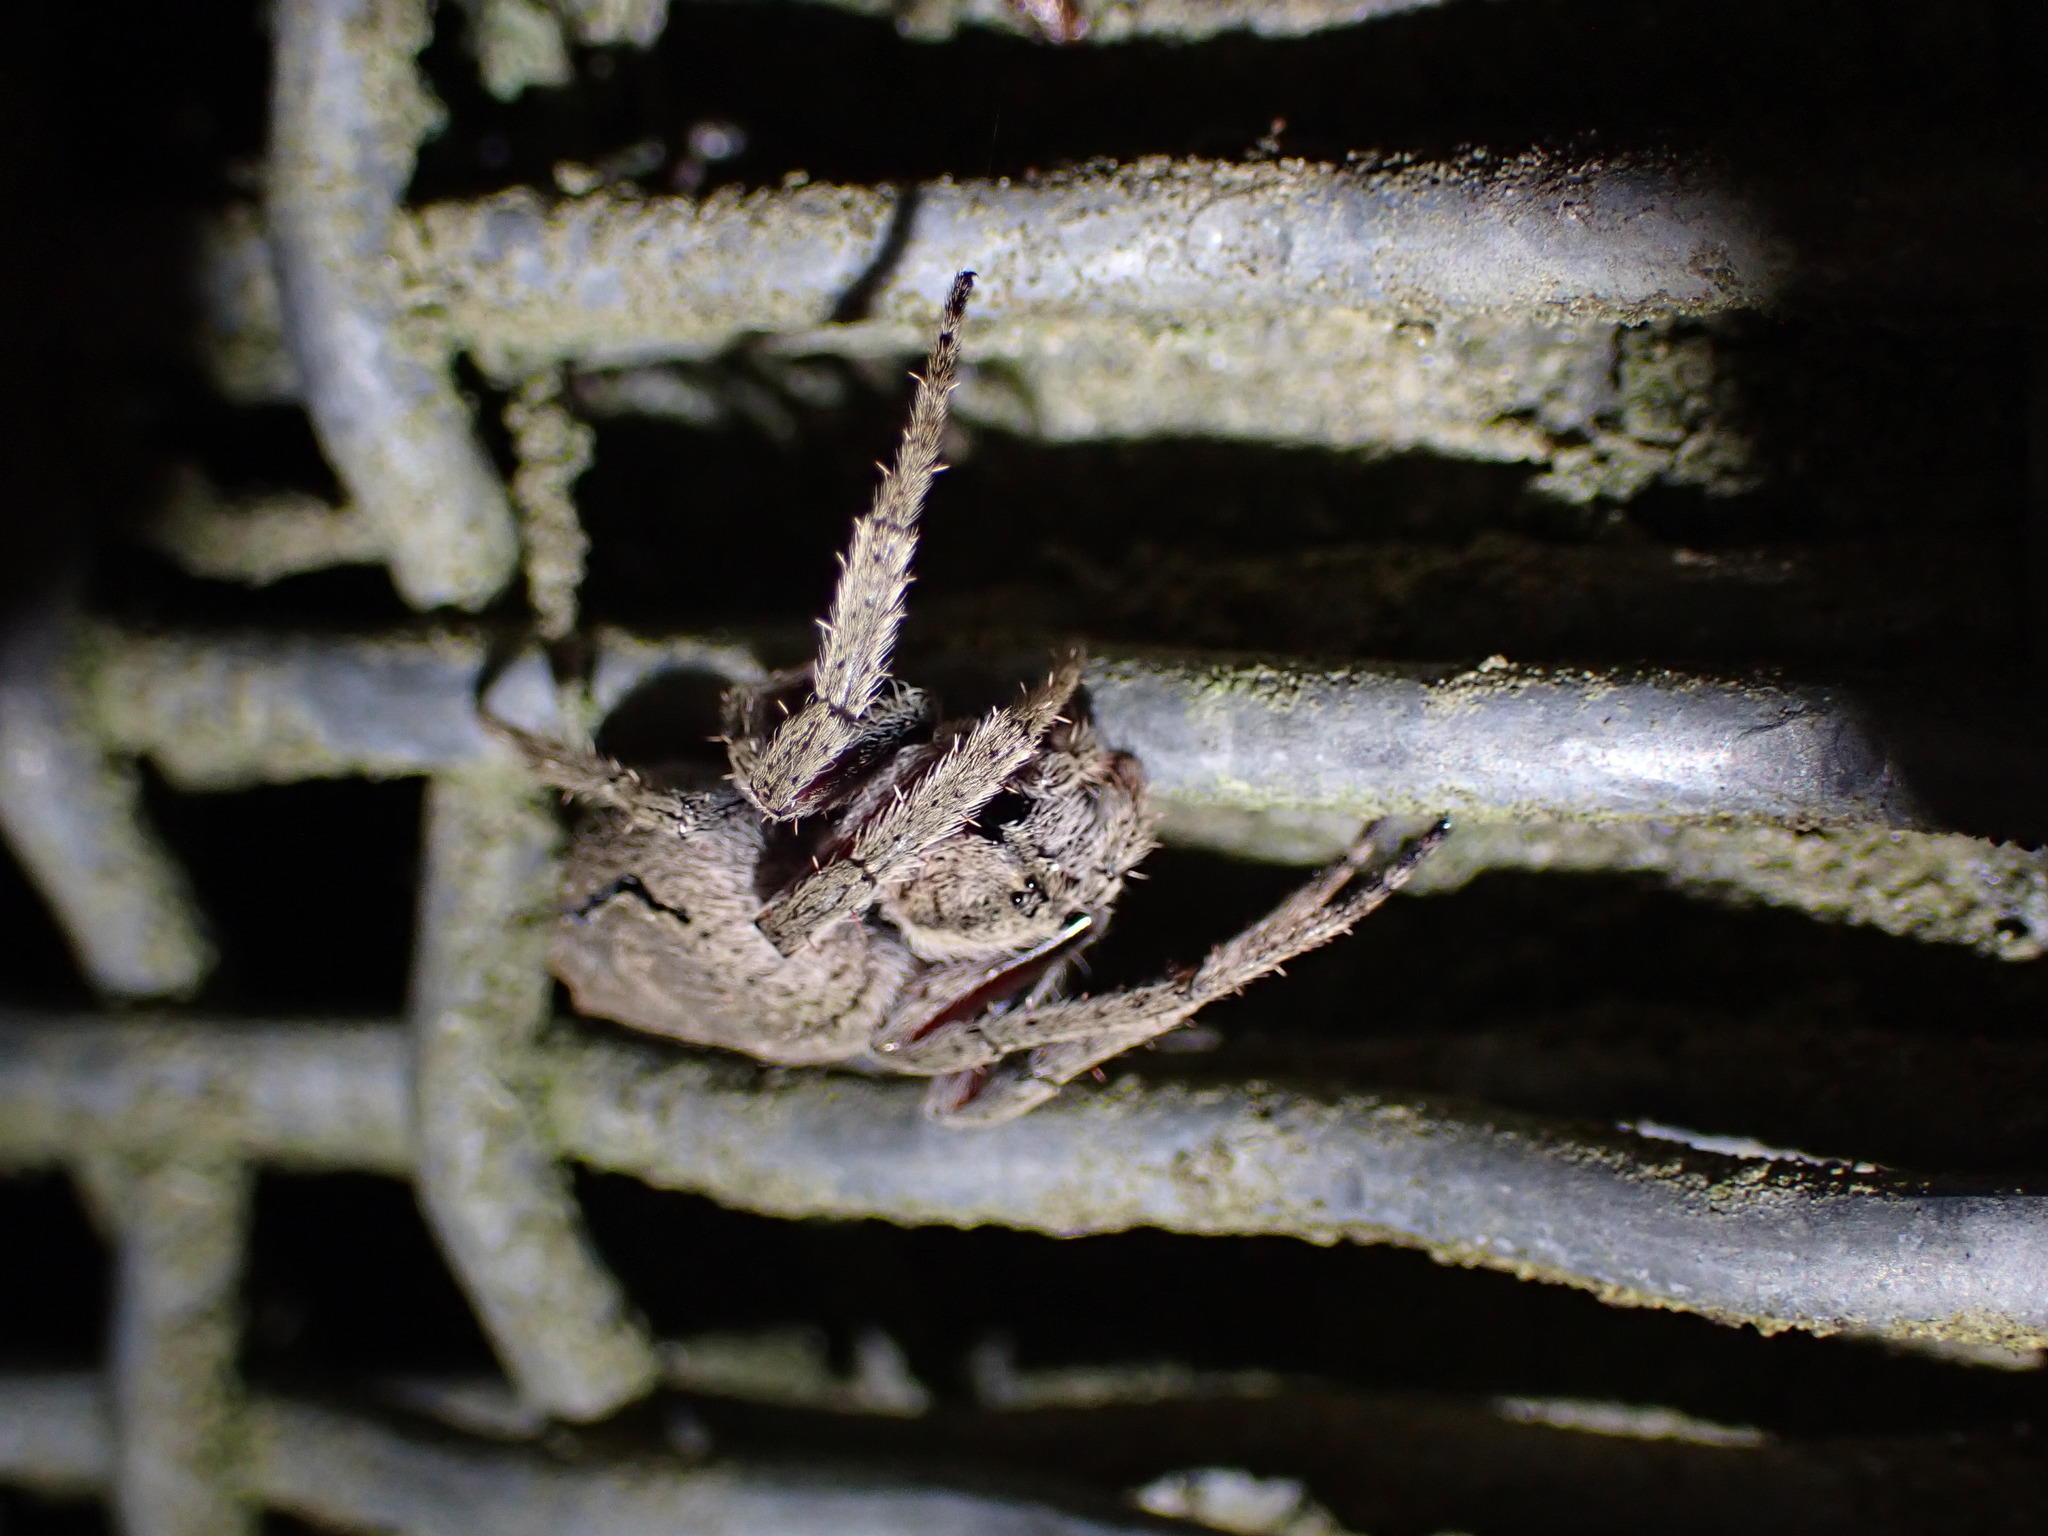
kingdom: Animalia
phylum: Arthropoda
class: Arachnida
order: Araneae
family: Araneidae
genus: Eriophora
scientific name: Eriophora pustulosa
